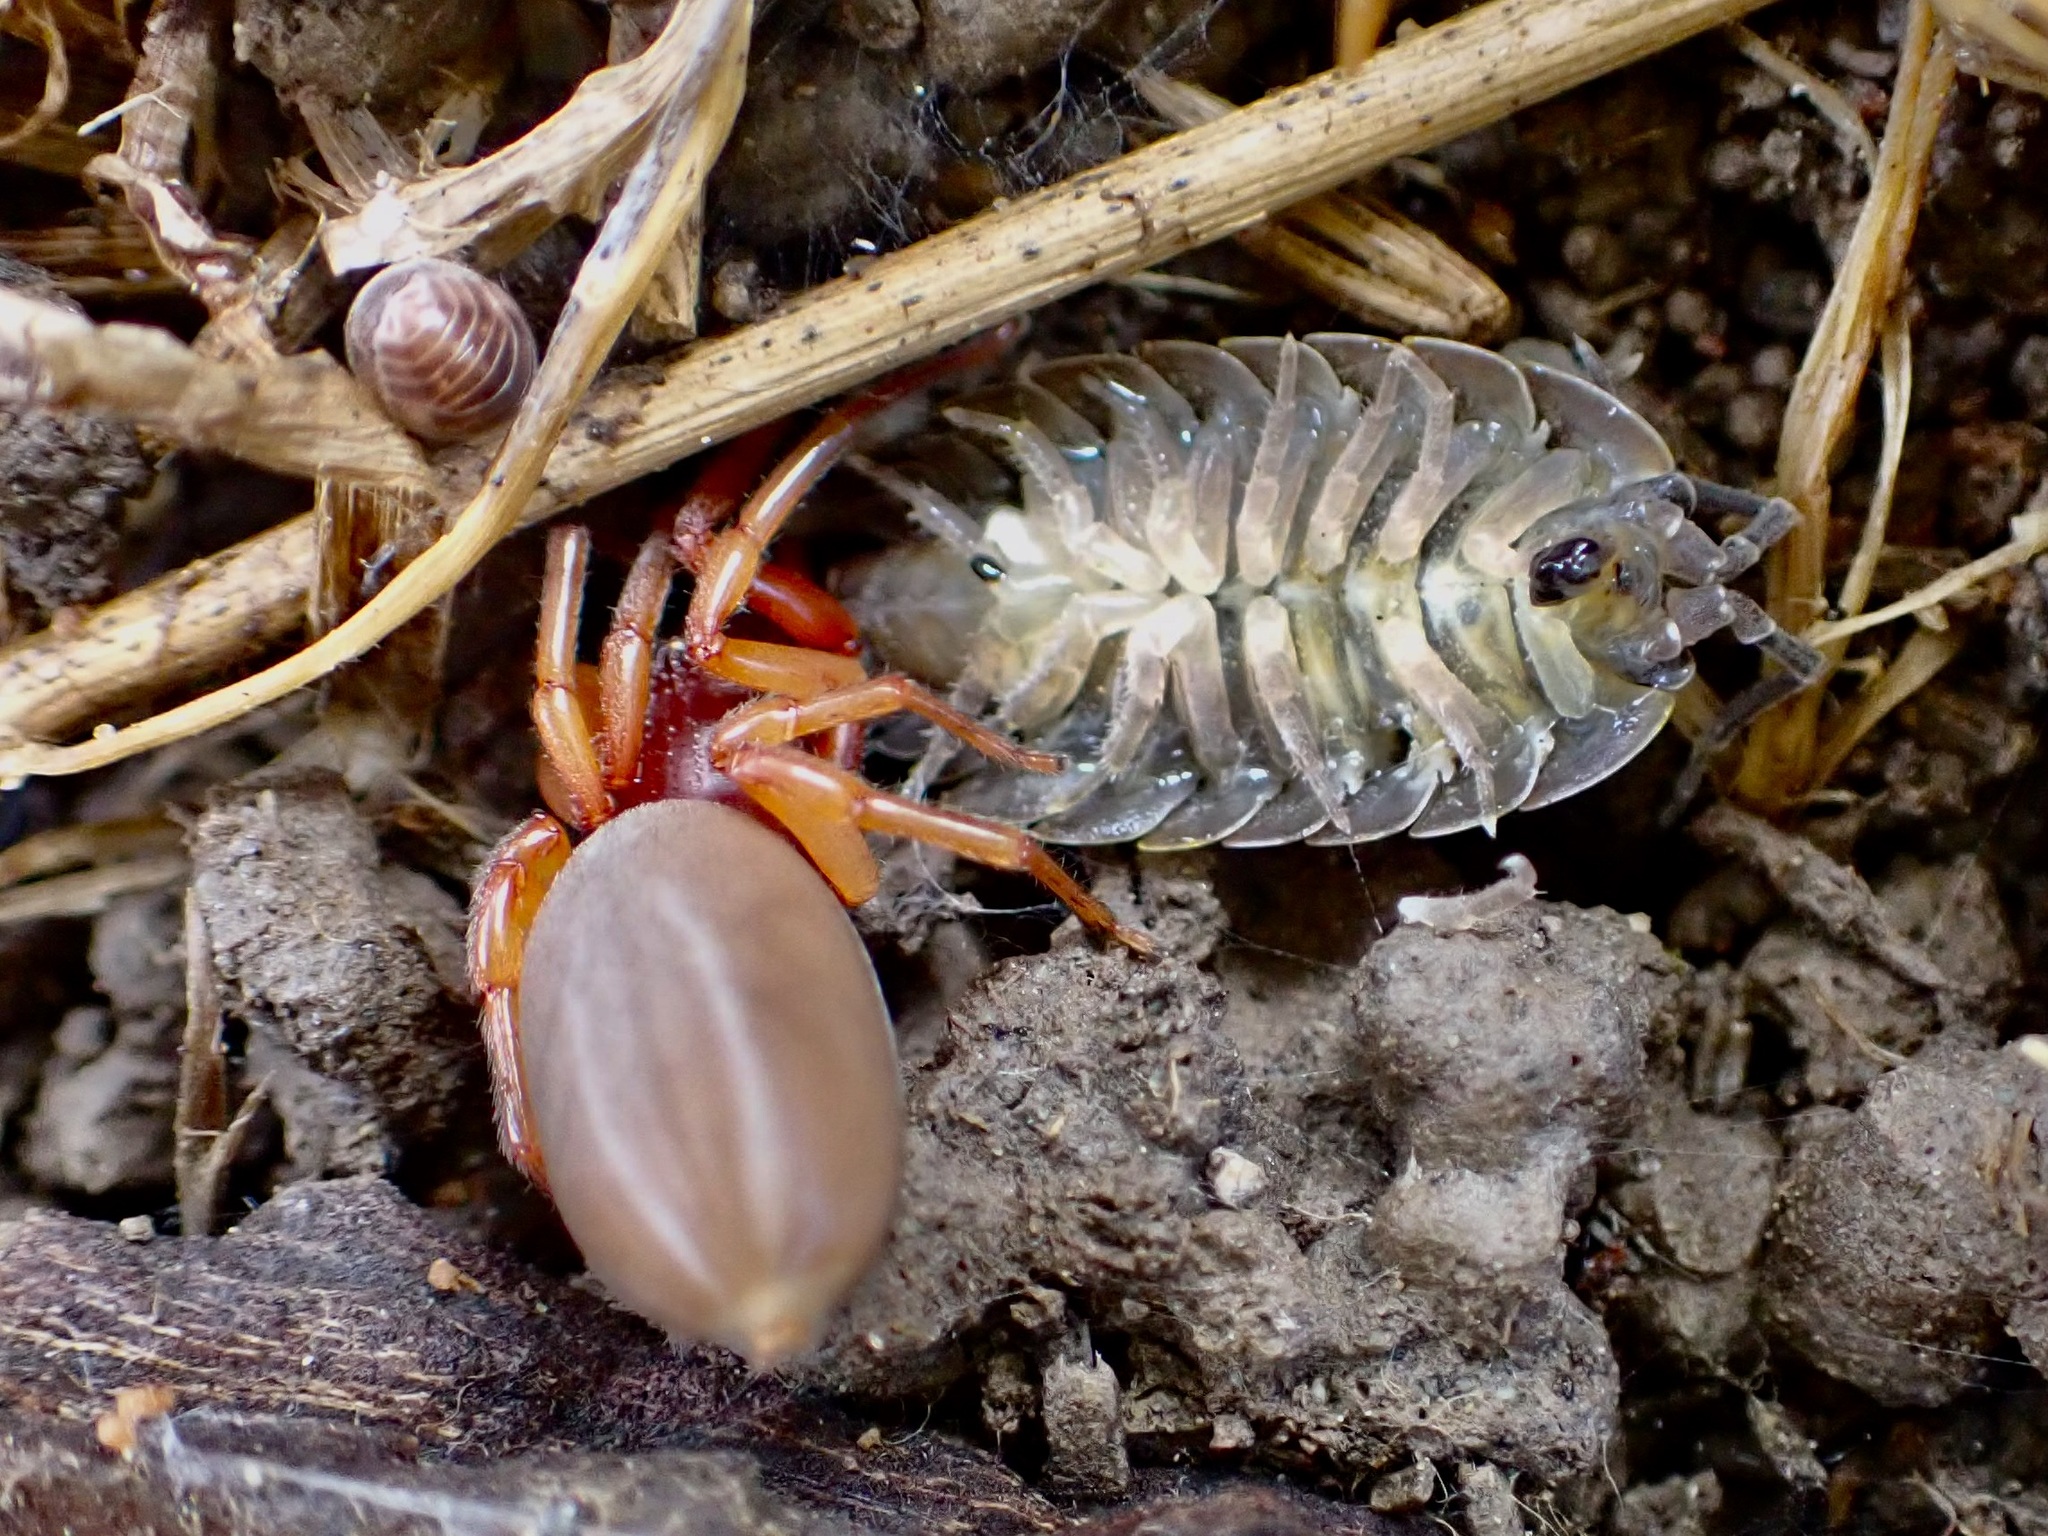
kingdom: Animalia
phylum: Arthropoda
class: Arachnida
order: Araneae
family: Dysderidae
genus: Dysdera
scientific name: Dysdera crocata
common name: Woodlouse spider
